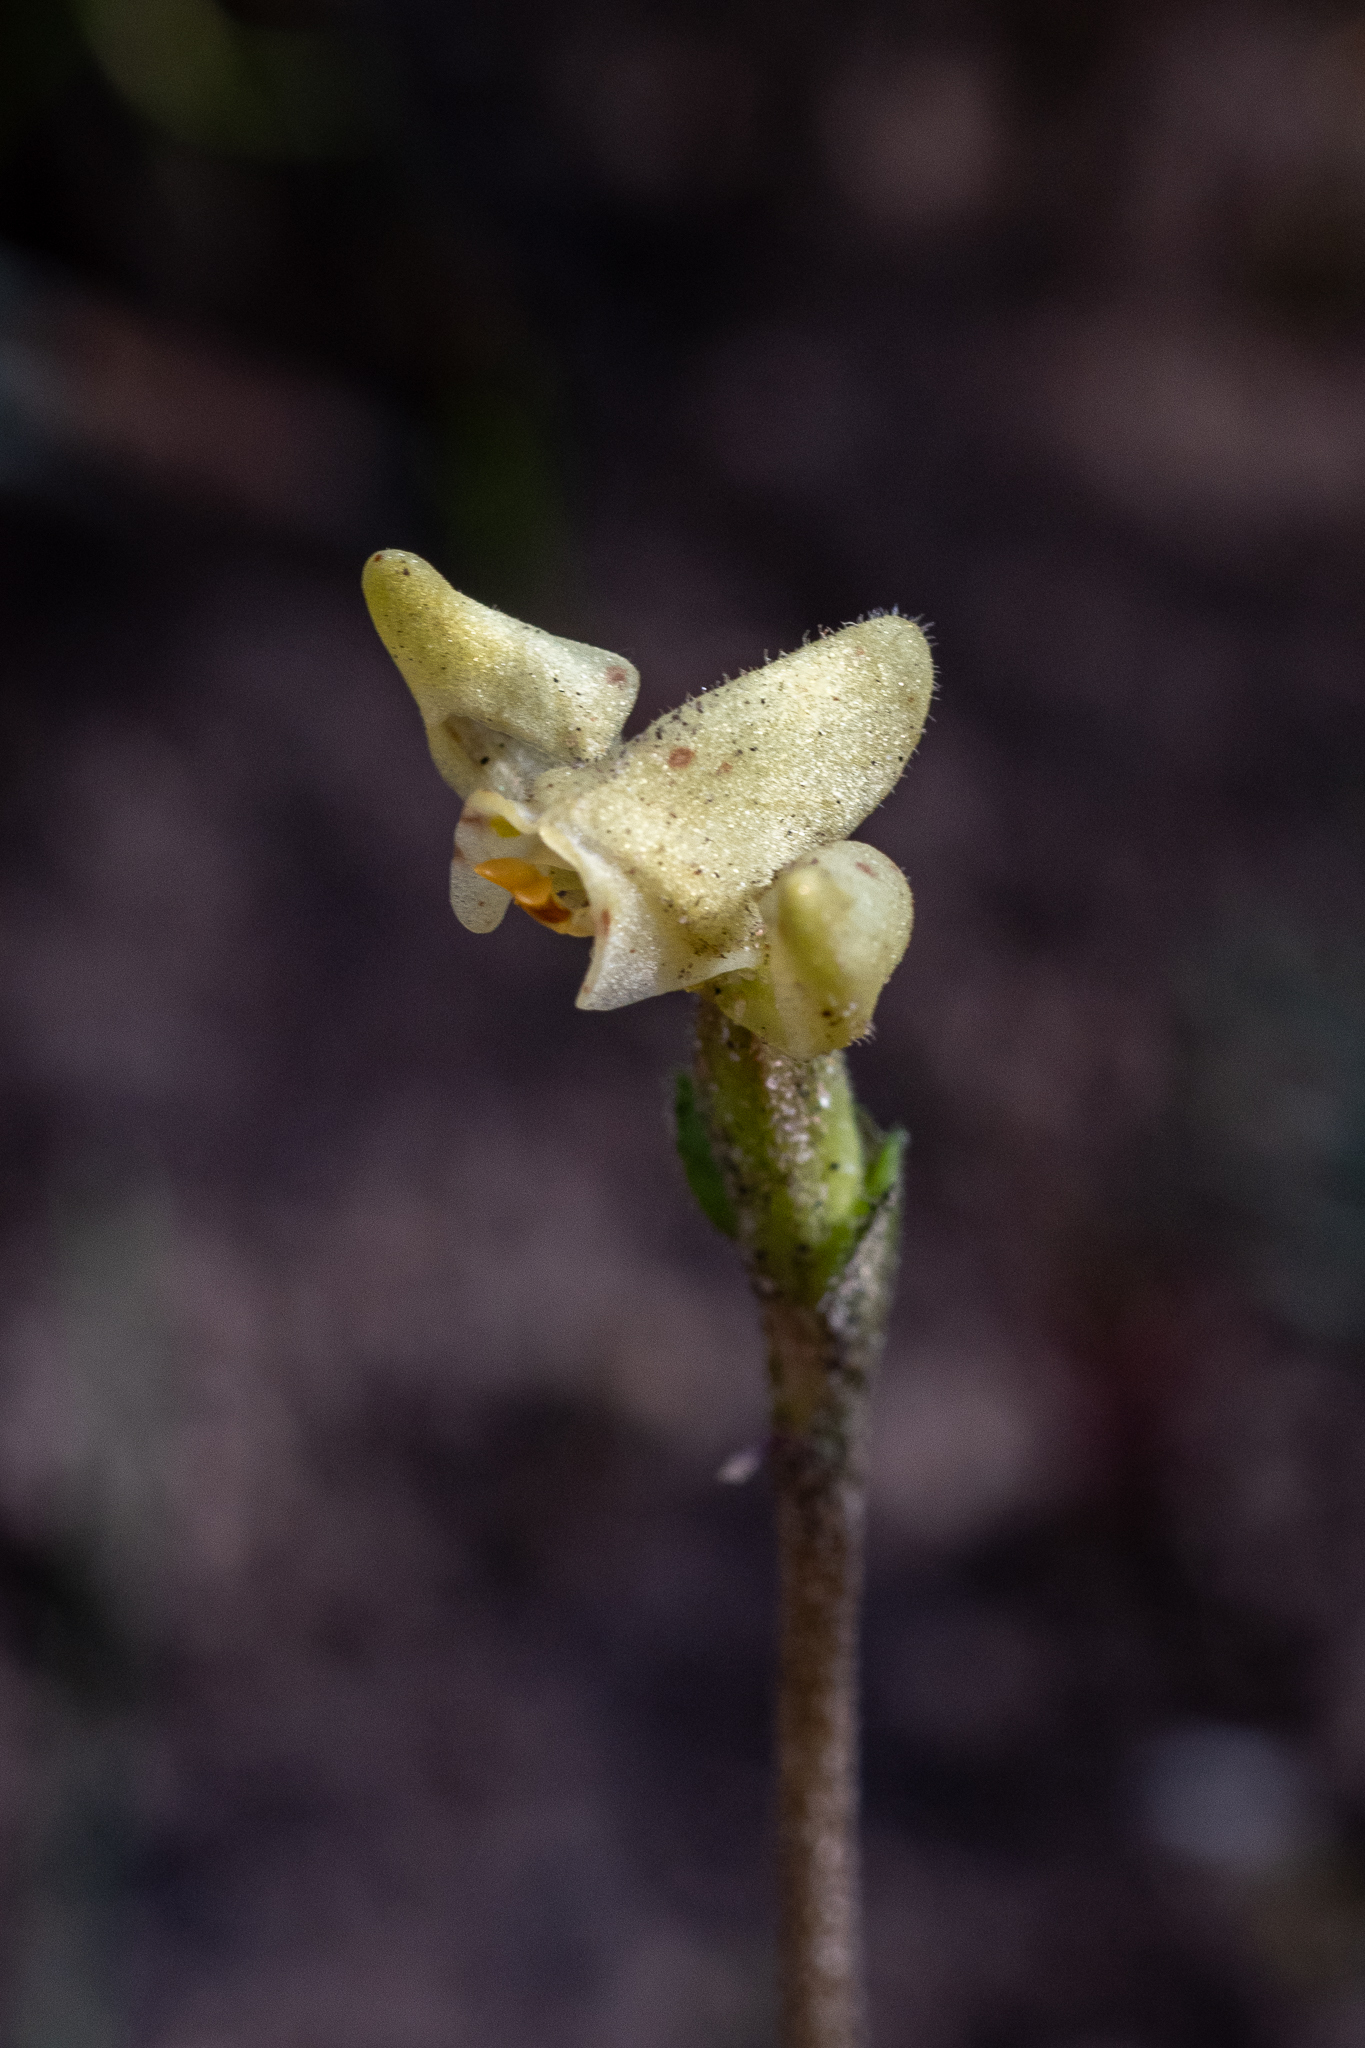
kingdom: Plantae
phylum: Tracheophyta
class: Liliopsida
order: Asparagales
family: Orchidaceae
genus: Disperis
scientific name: Disperis villosa
